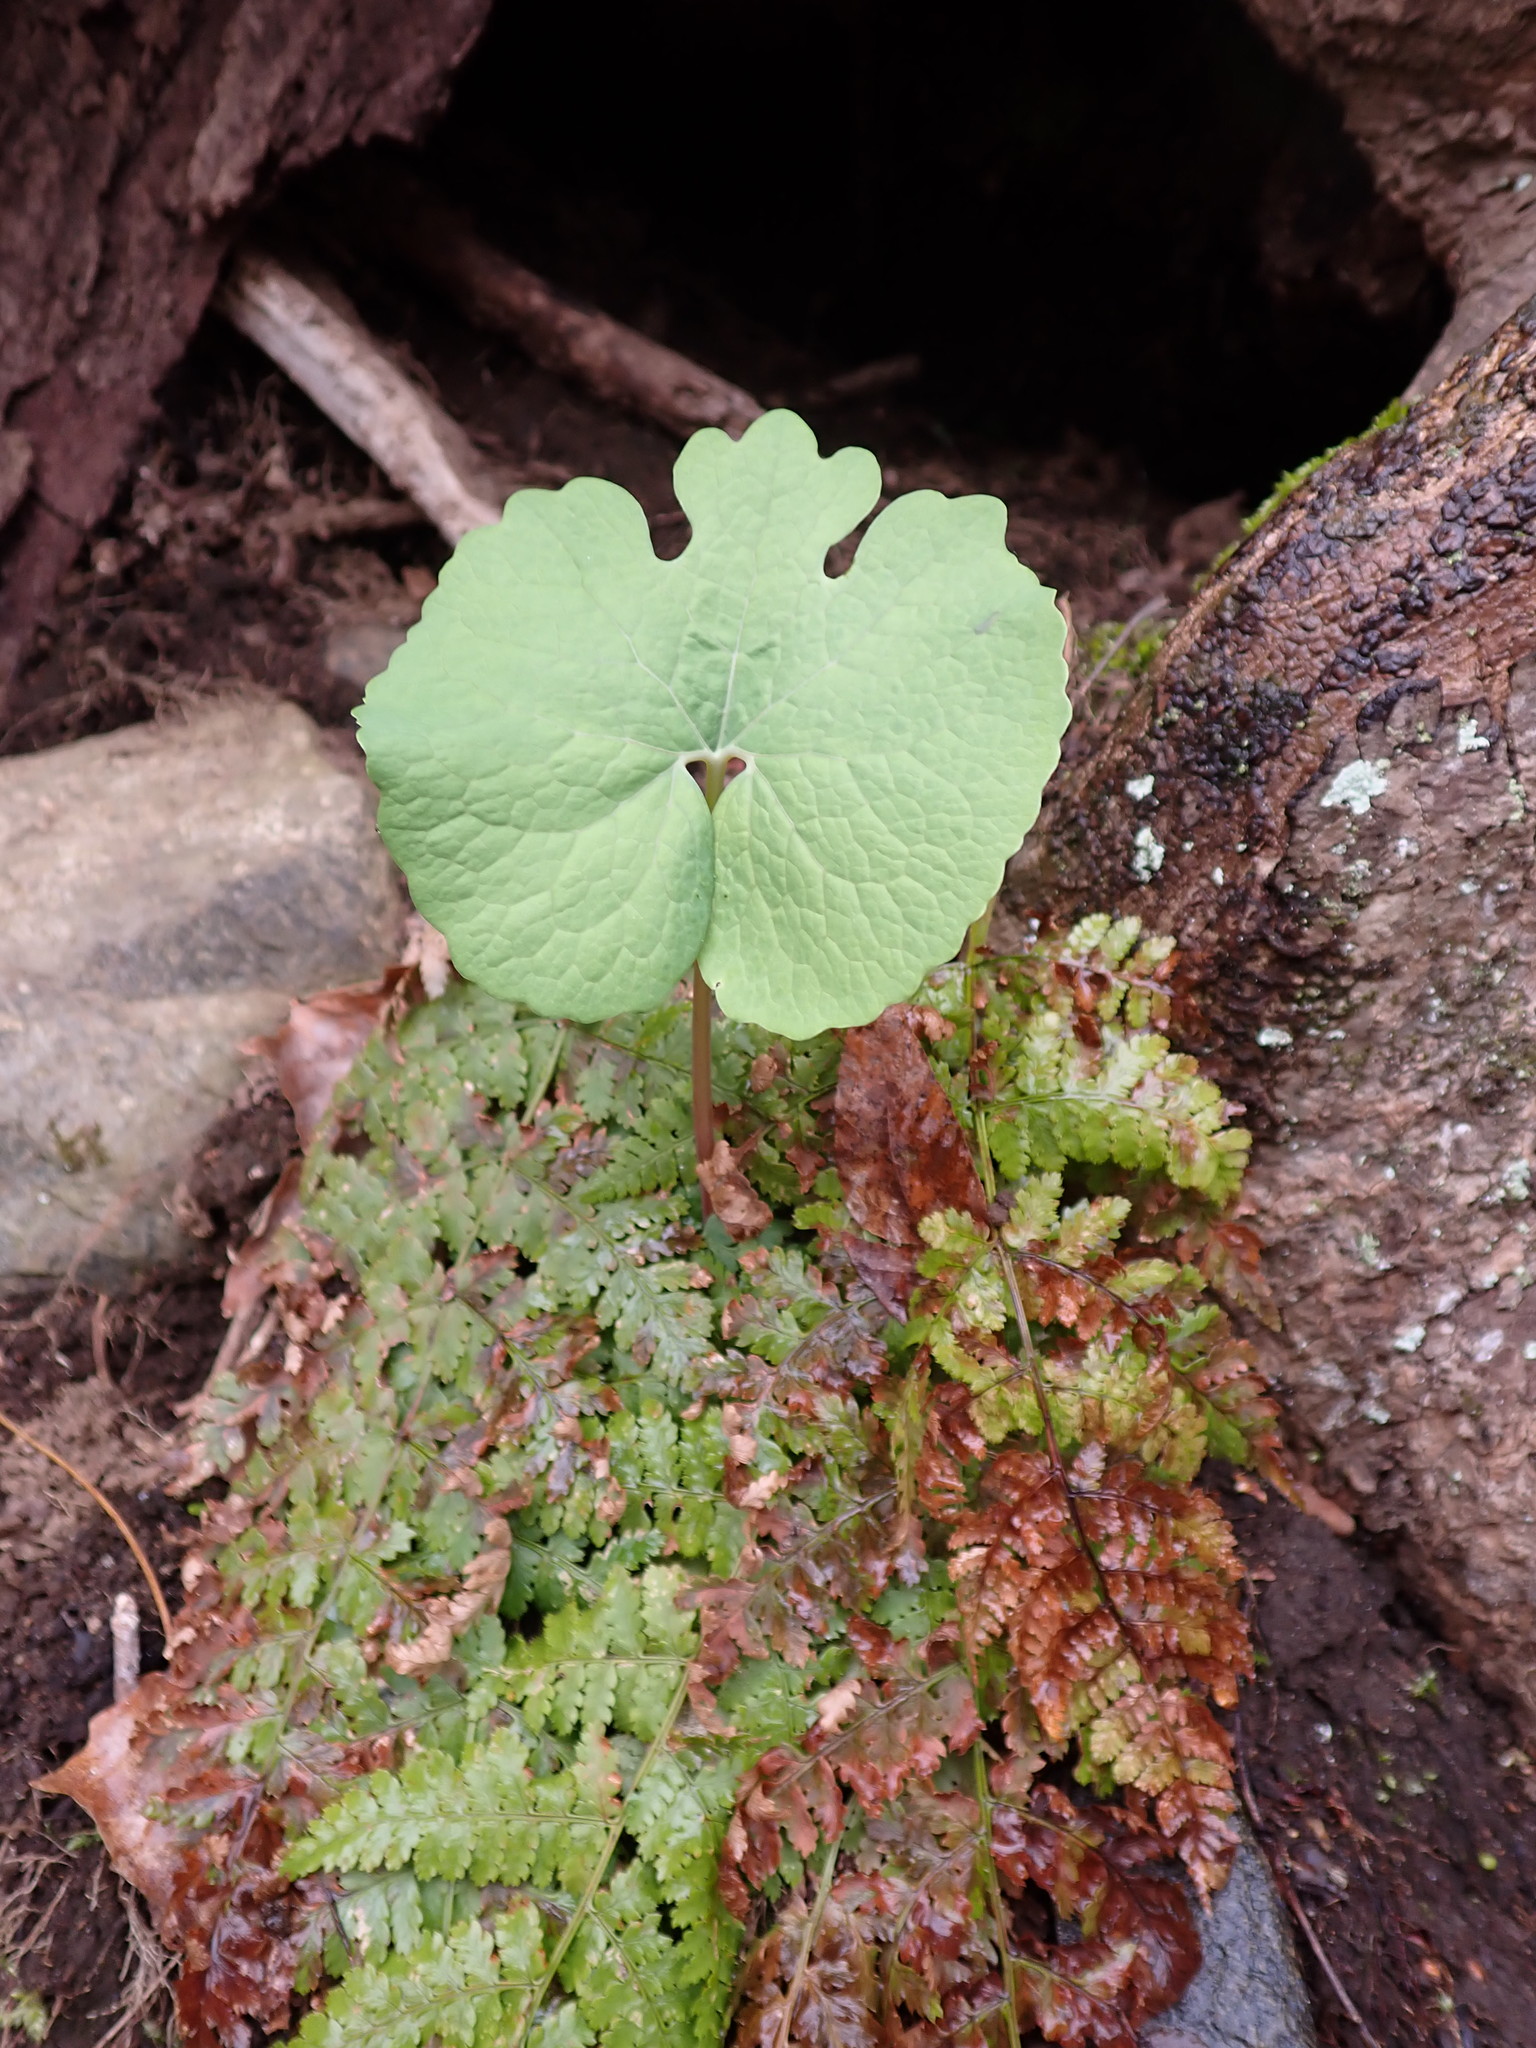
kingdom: Plantae
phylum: Tracheophyta
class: Magnoliopsida
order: Ranunculales
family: Papaveraceae
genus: Sanguinaria
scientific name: Sanguinaria canadensis
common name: Bloodroot
